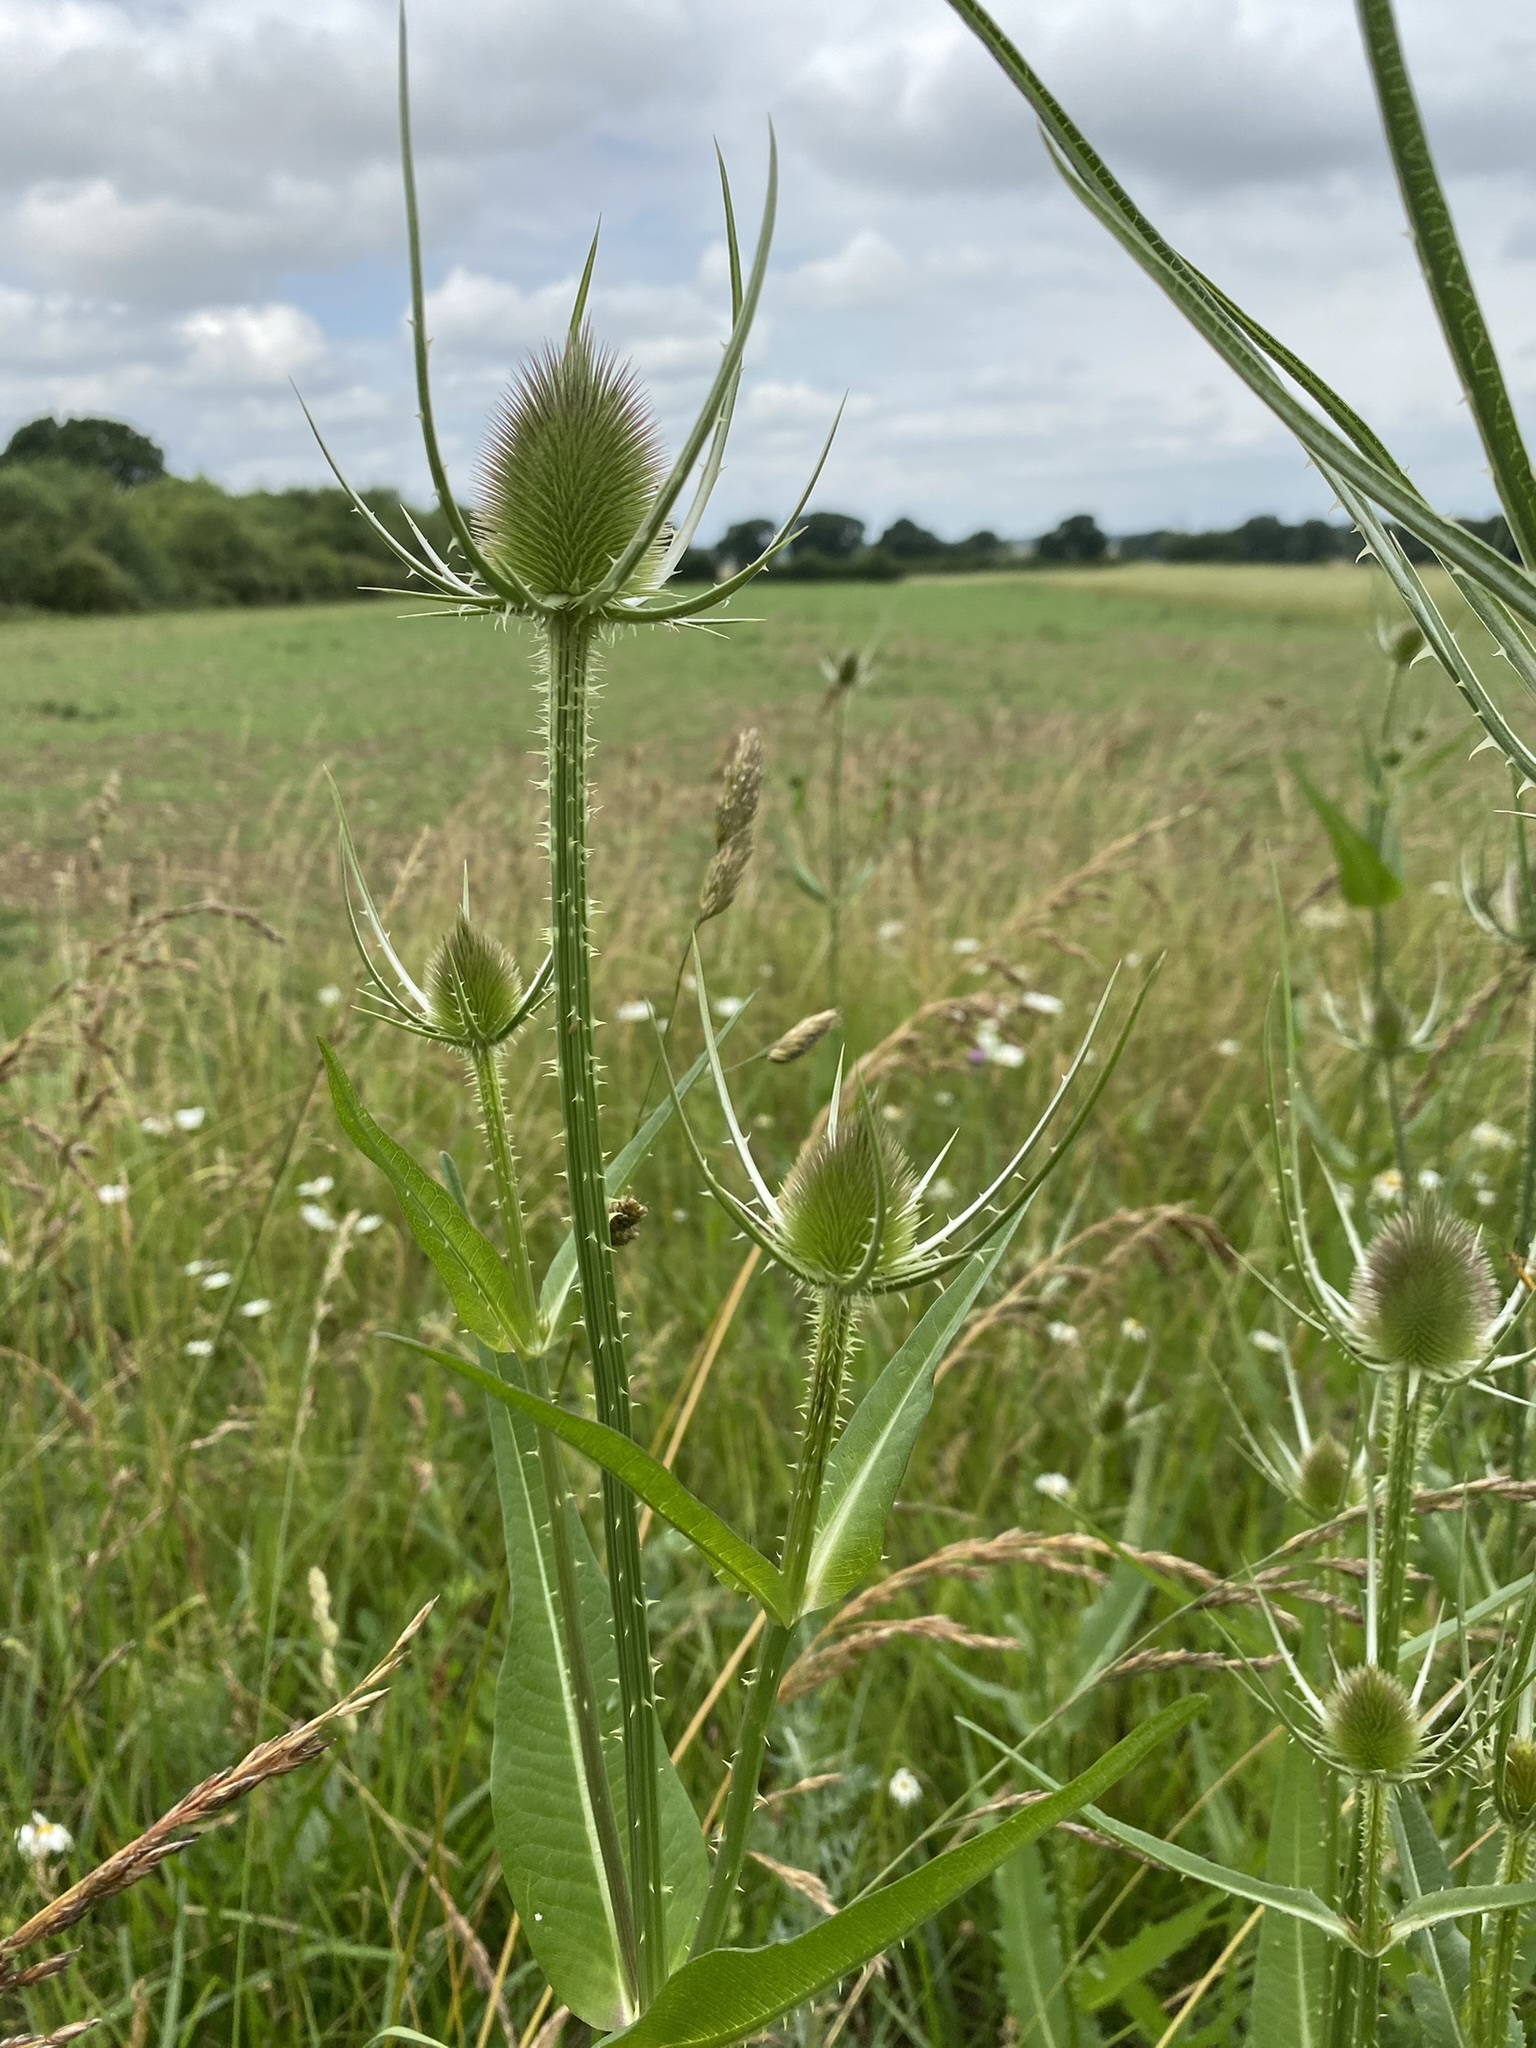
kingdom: Plantae
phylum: Tracheophyta
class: Magnoliopsida
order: Dipsacales
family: Caprifoliaceae
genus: Dipsacus
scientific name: Dipsacus fullonum
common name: Teasel
